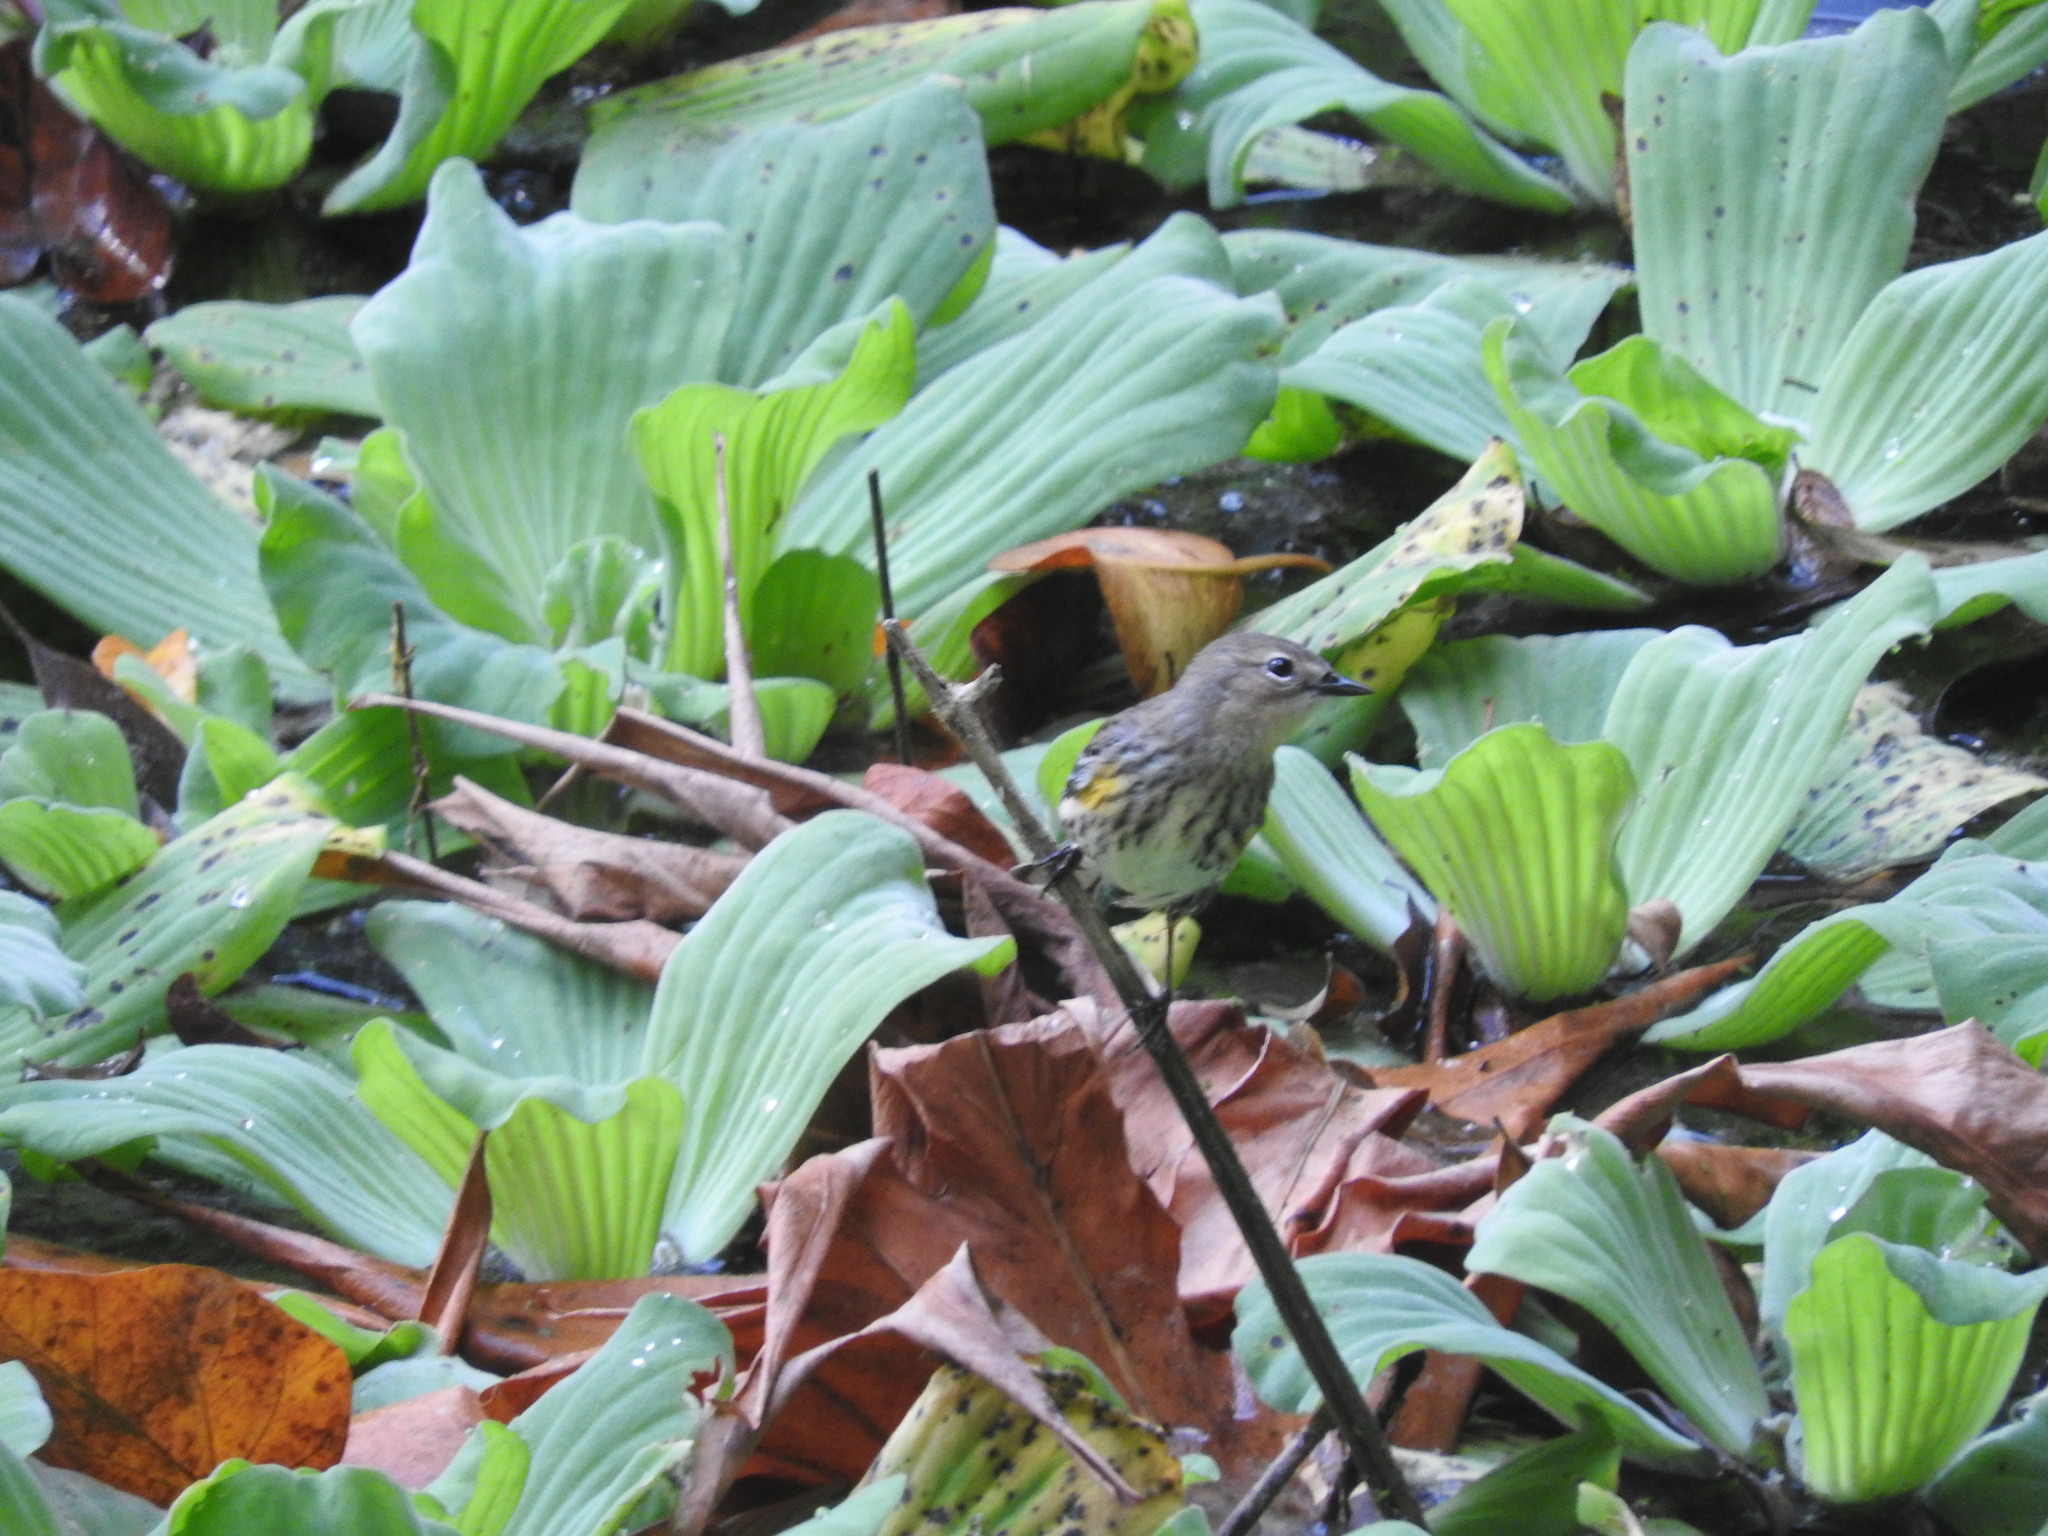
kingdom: Animalia
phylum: Chordata
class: Aves
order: Passeriformes
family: Parulidae
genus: Setophaga
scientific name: Setophaga coronata
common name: Myrtle warbler
